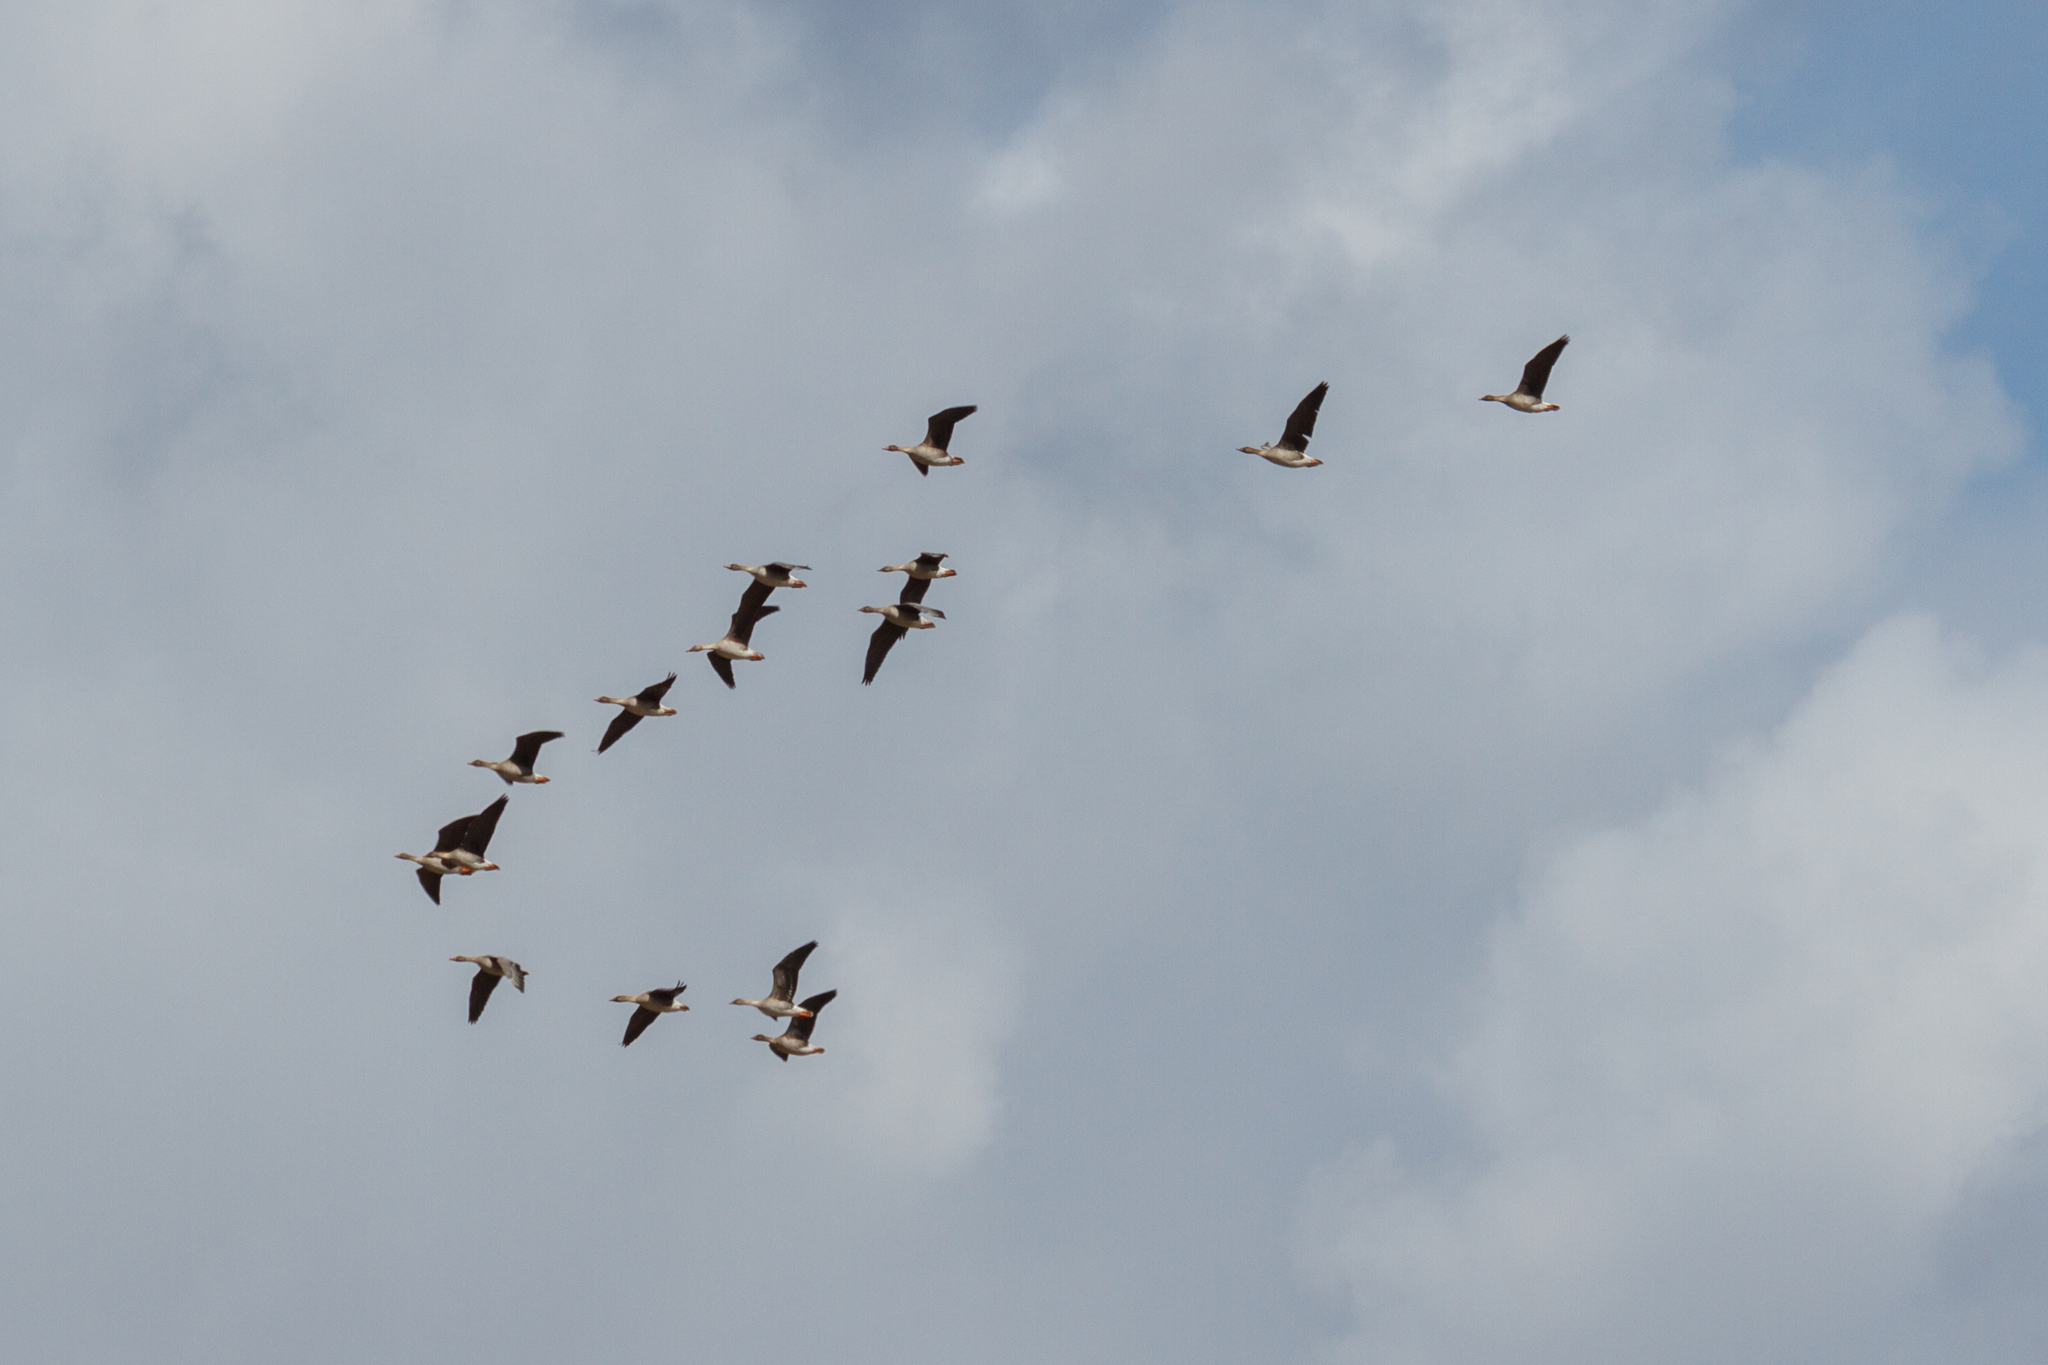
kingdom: Animalia
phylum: Chordata
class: Aves
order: Anseriformes
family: Anatidae
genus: Anser
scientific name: Anser fabalis
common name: Bean goose
